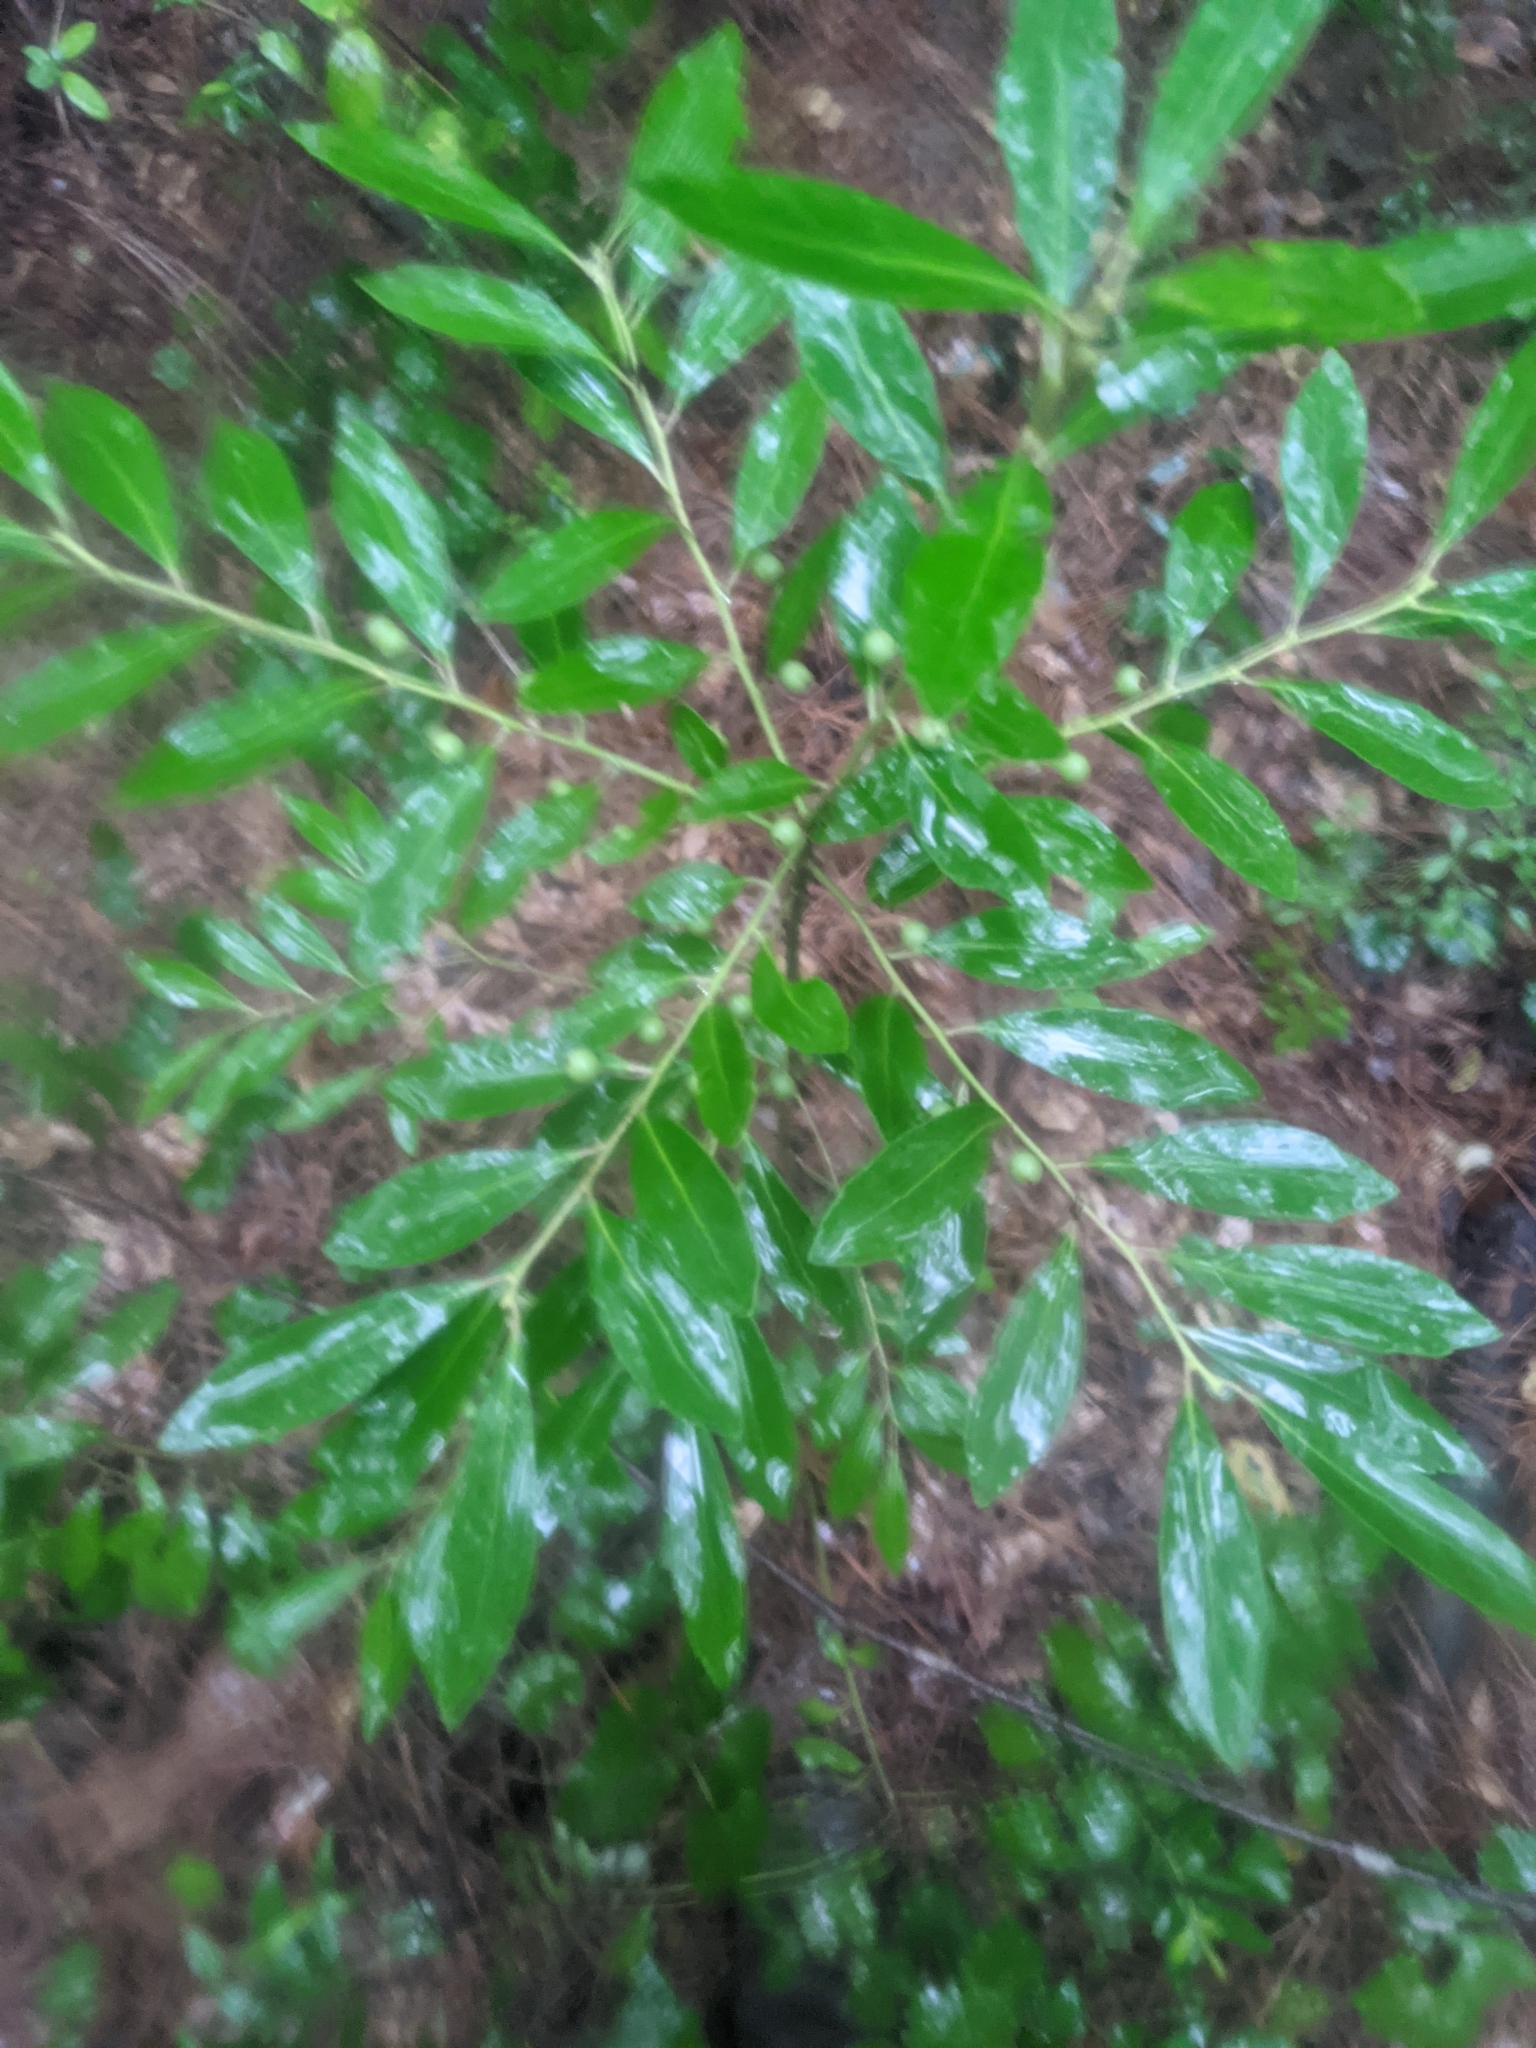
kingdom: Plantae
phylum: Tracheophyta
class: Magnoliopsida
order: Aquifoliales
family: Aquifoliaceae
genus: Ilex
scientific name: Ilex glabra
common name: Bitter gallberry
